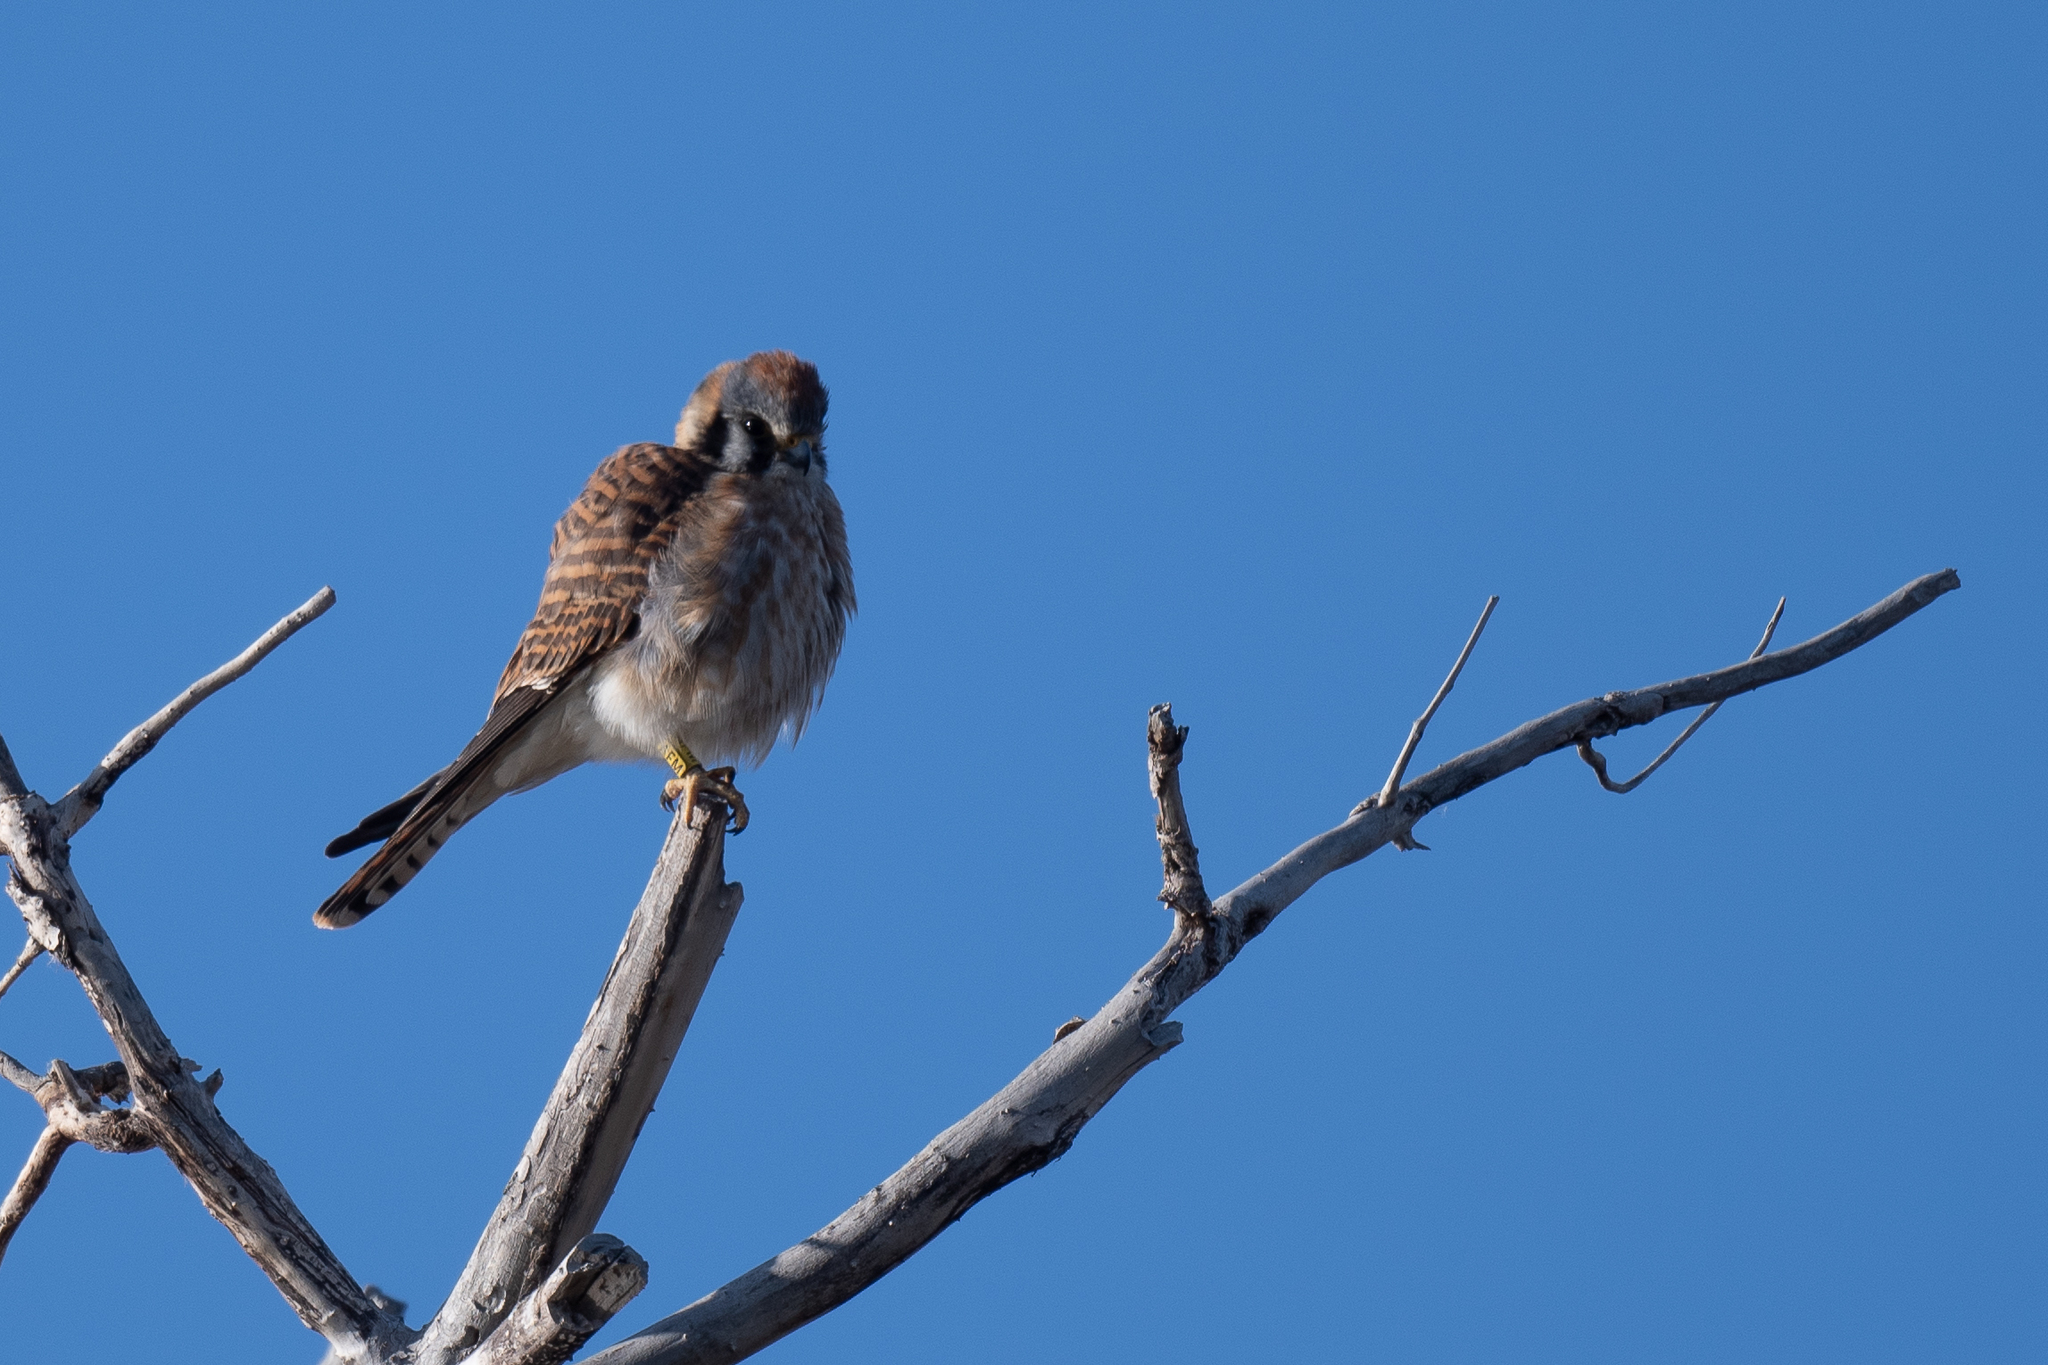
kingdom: Animalia
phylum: Chordata
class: Aves
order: Falconiformes
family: Falconidae
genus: Falco
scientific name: Falco sparverius
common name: American kestrel
